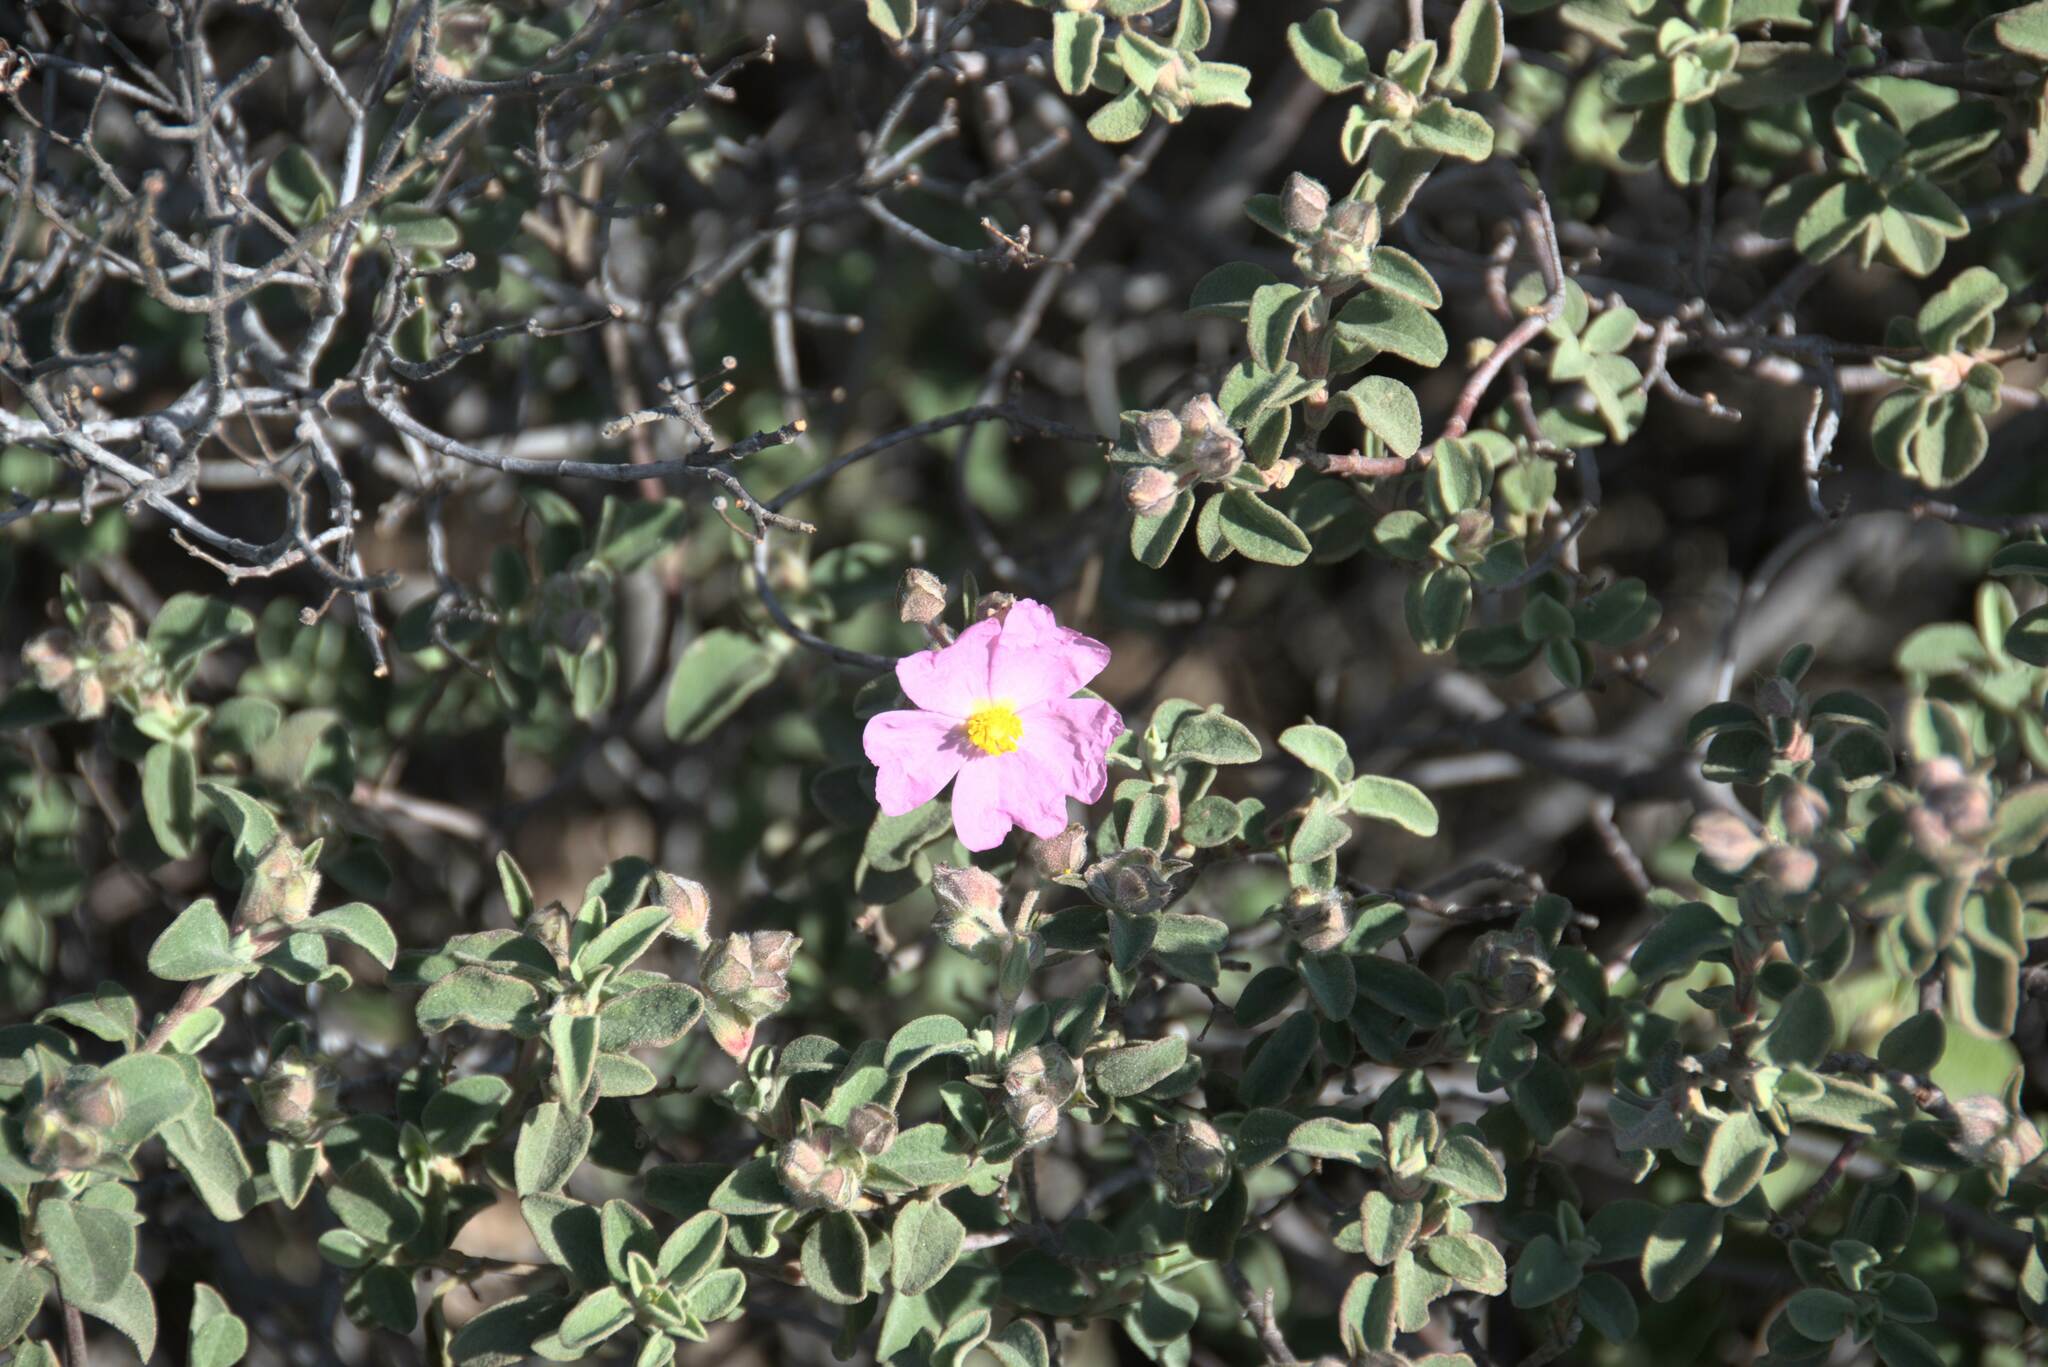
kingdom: Plantae
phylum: Tracheophyta
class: Magnoliopsida
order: Malvales
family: Cistaceae
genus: Cistus
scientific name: Cistus parviflorus
